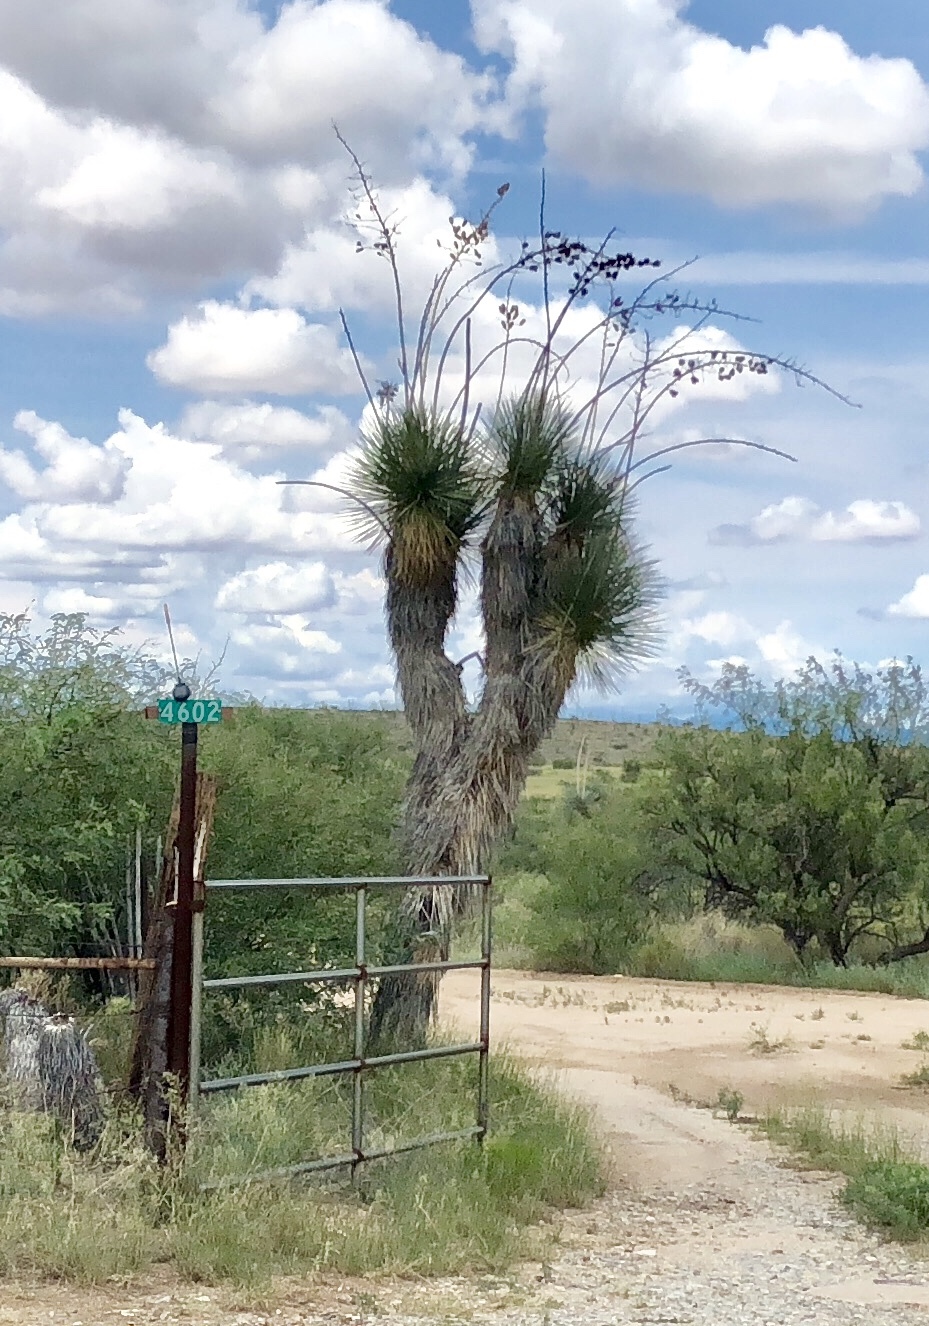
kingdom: Plantae
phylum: Tracheophyta
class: Liliopsida
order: Asparagales
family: Asparagaceae
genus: Yucca
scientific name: Yucca elata
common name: Palmella
